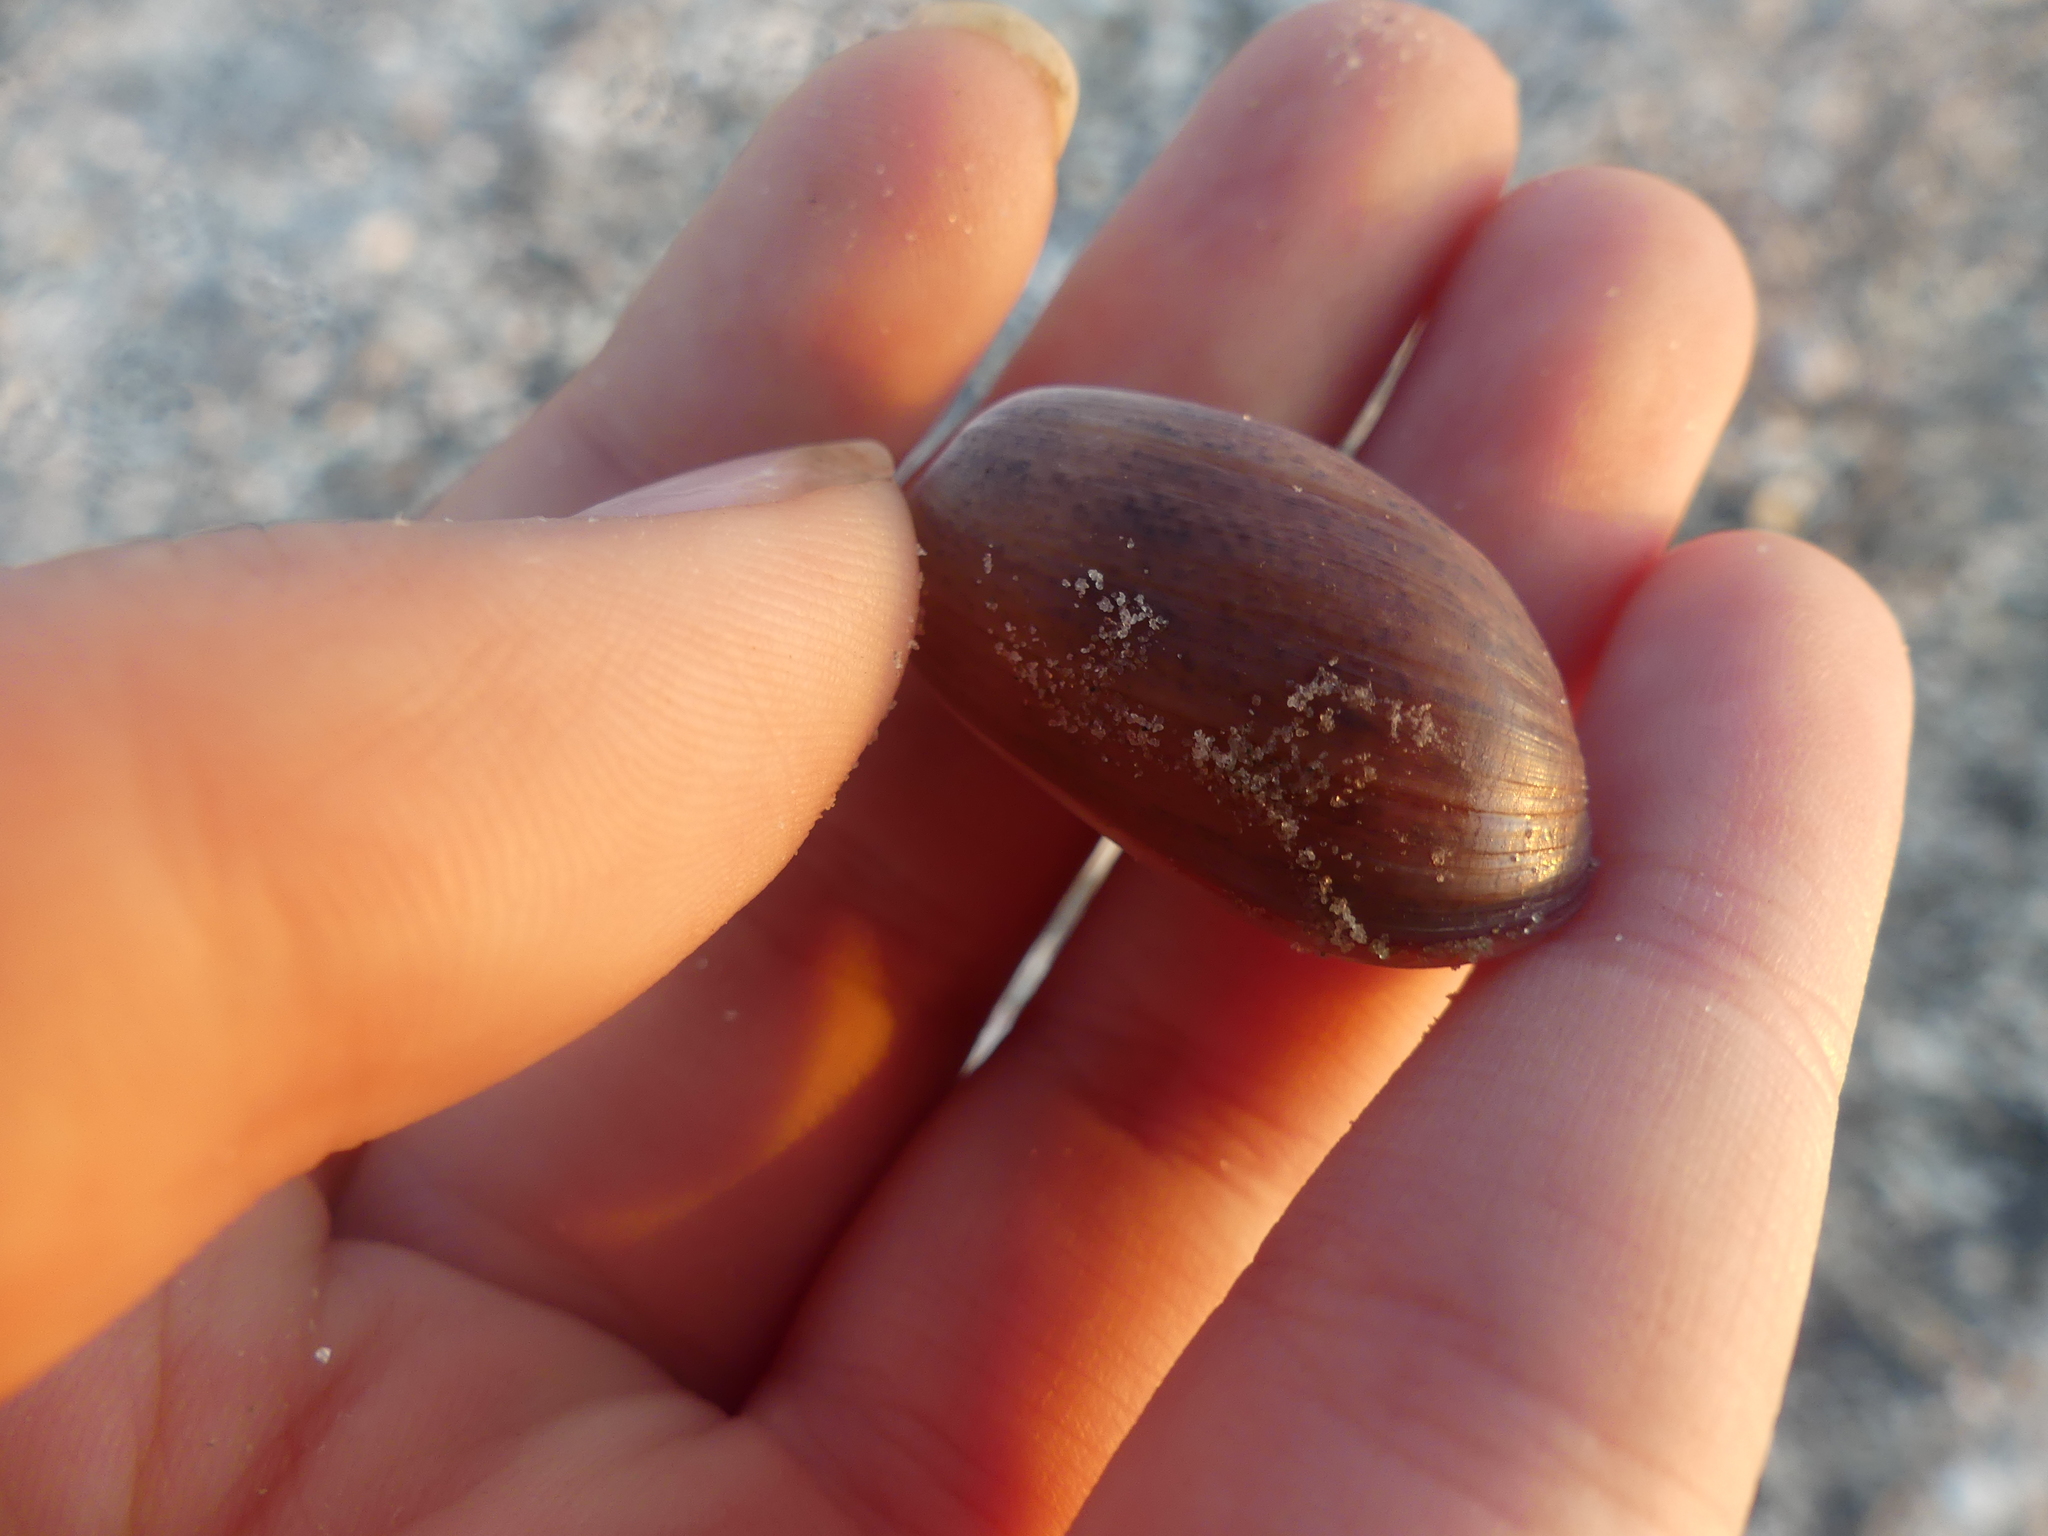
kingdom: Animalia
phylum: Mollusca
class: Gastropoda
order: Cephalaspidea
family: Bullidae
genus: Bulla
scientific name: Bulla occidentalis
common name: Common west-indian bubble
